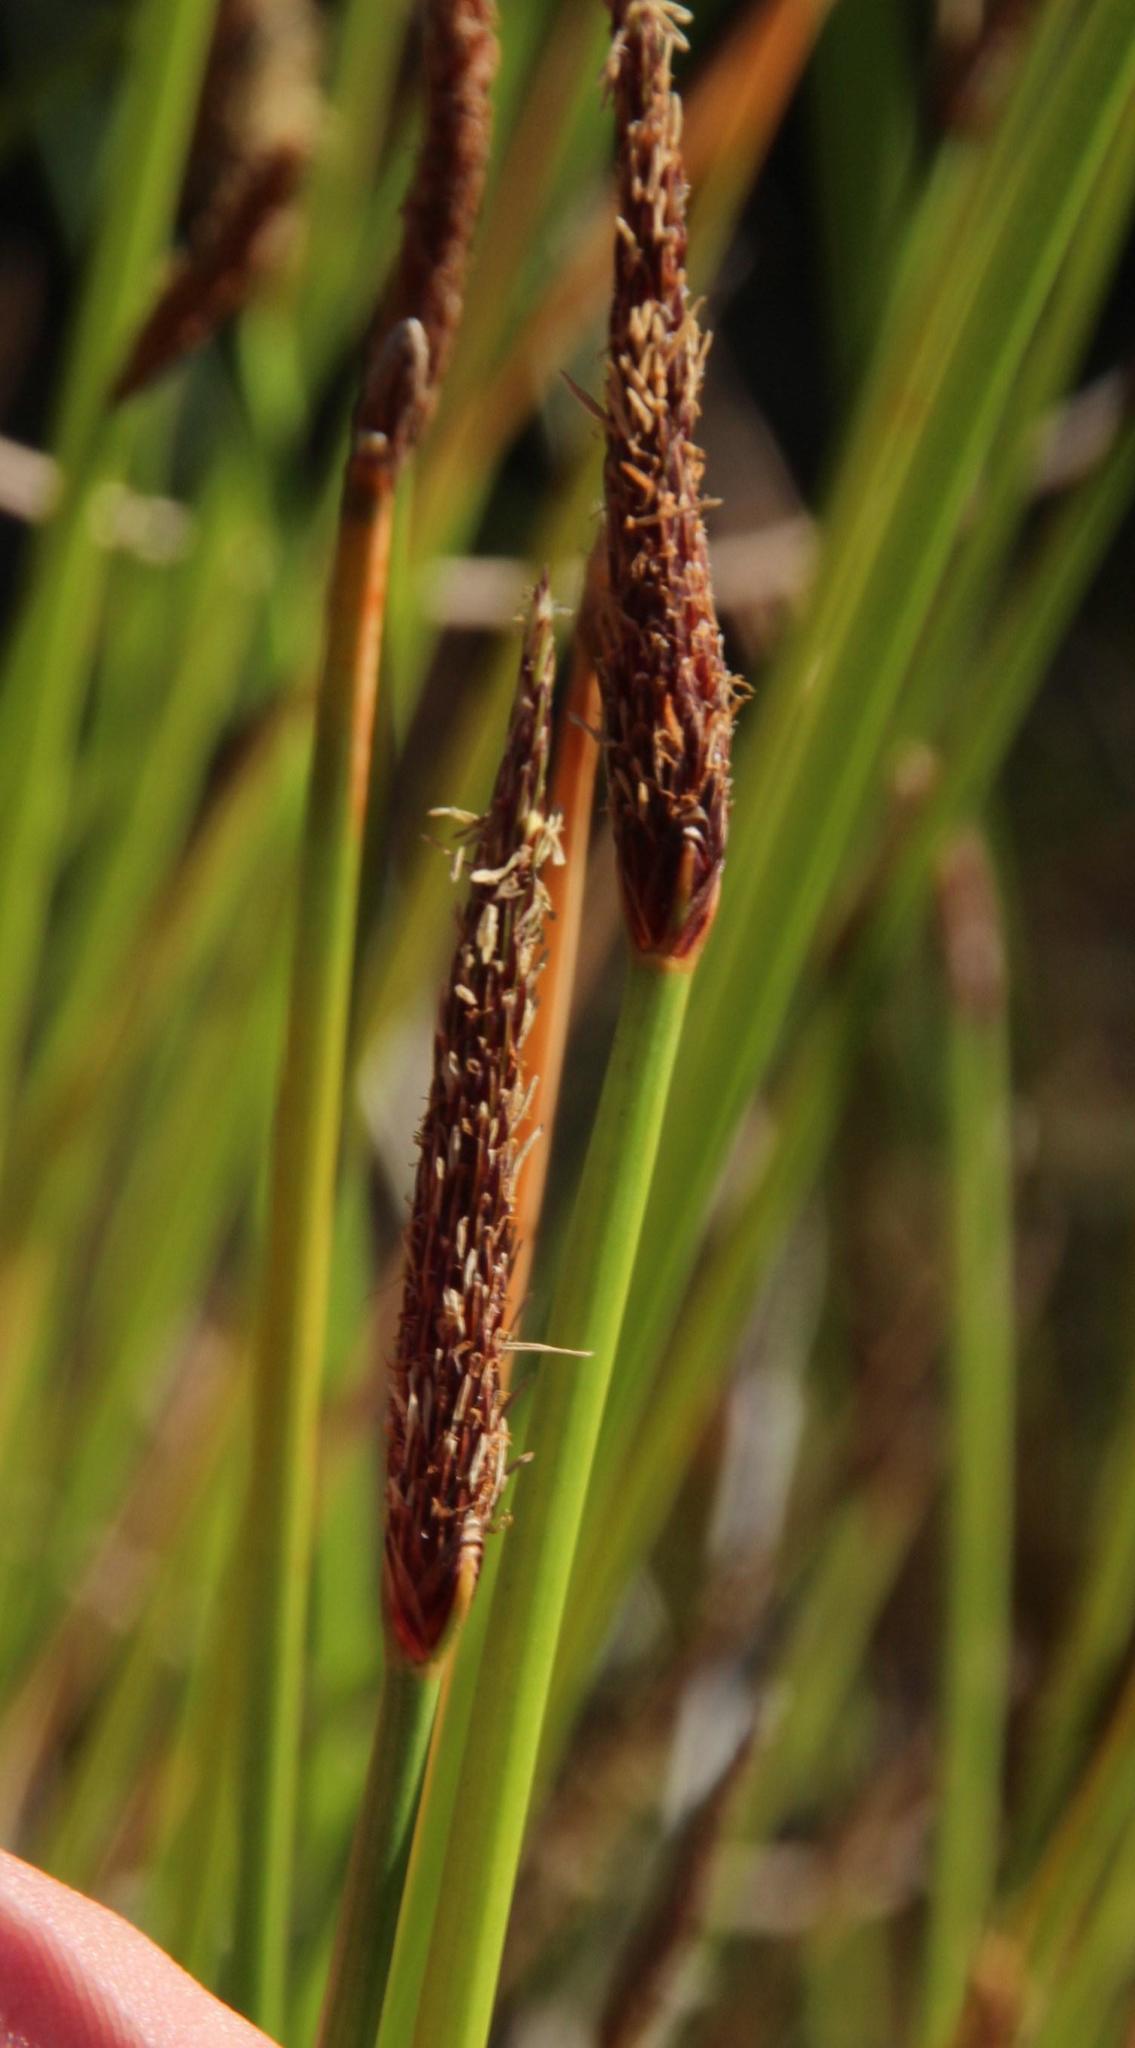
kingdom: Plantae
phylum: Tracheophyta
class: Liliopsida
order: Poales
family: Cyperaceae
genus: Eleocharis
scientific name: Eleocharis limosa
